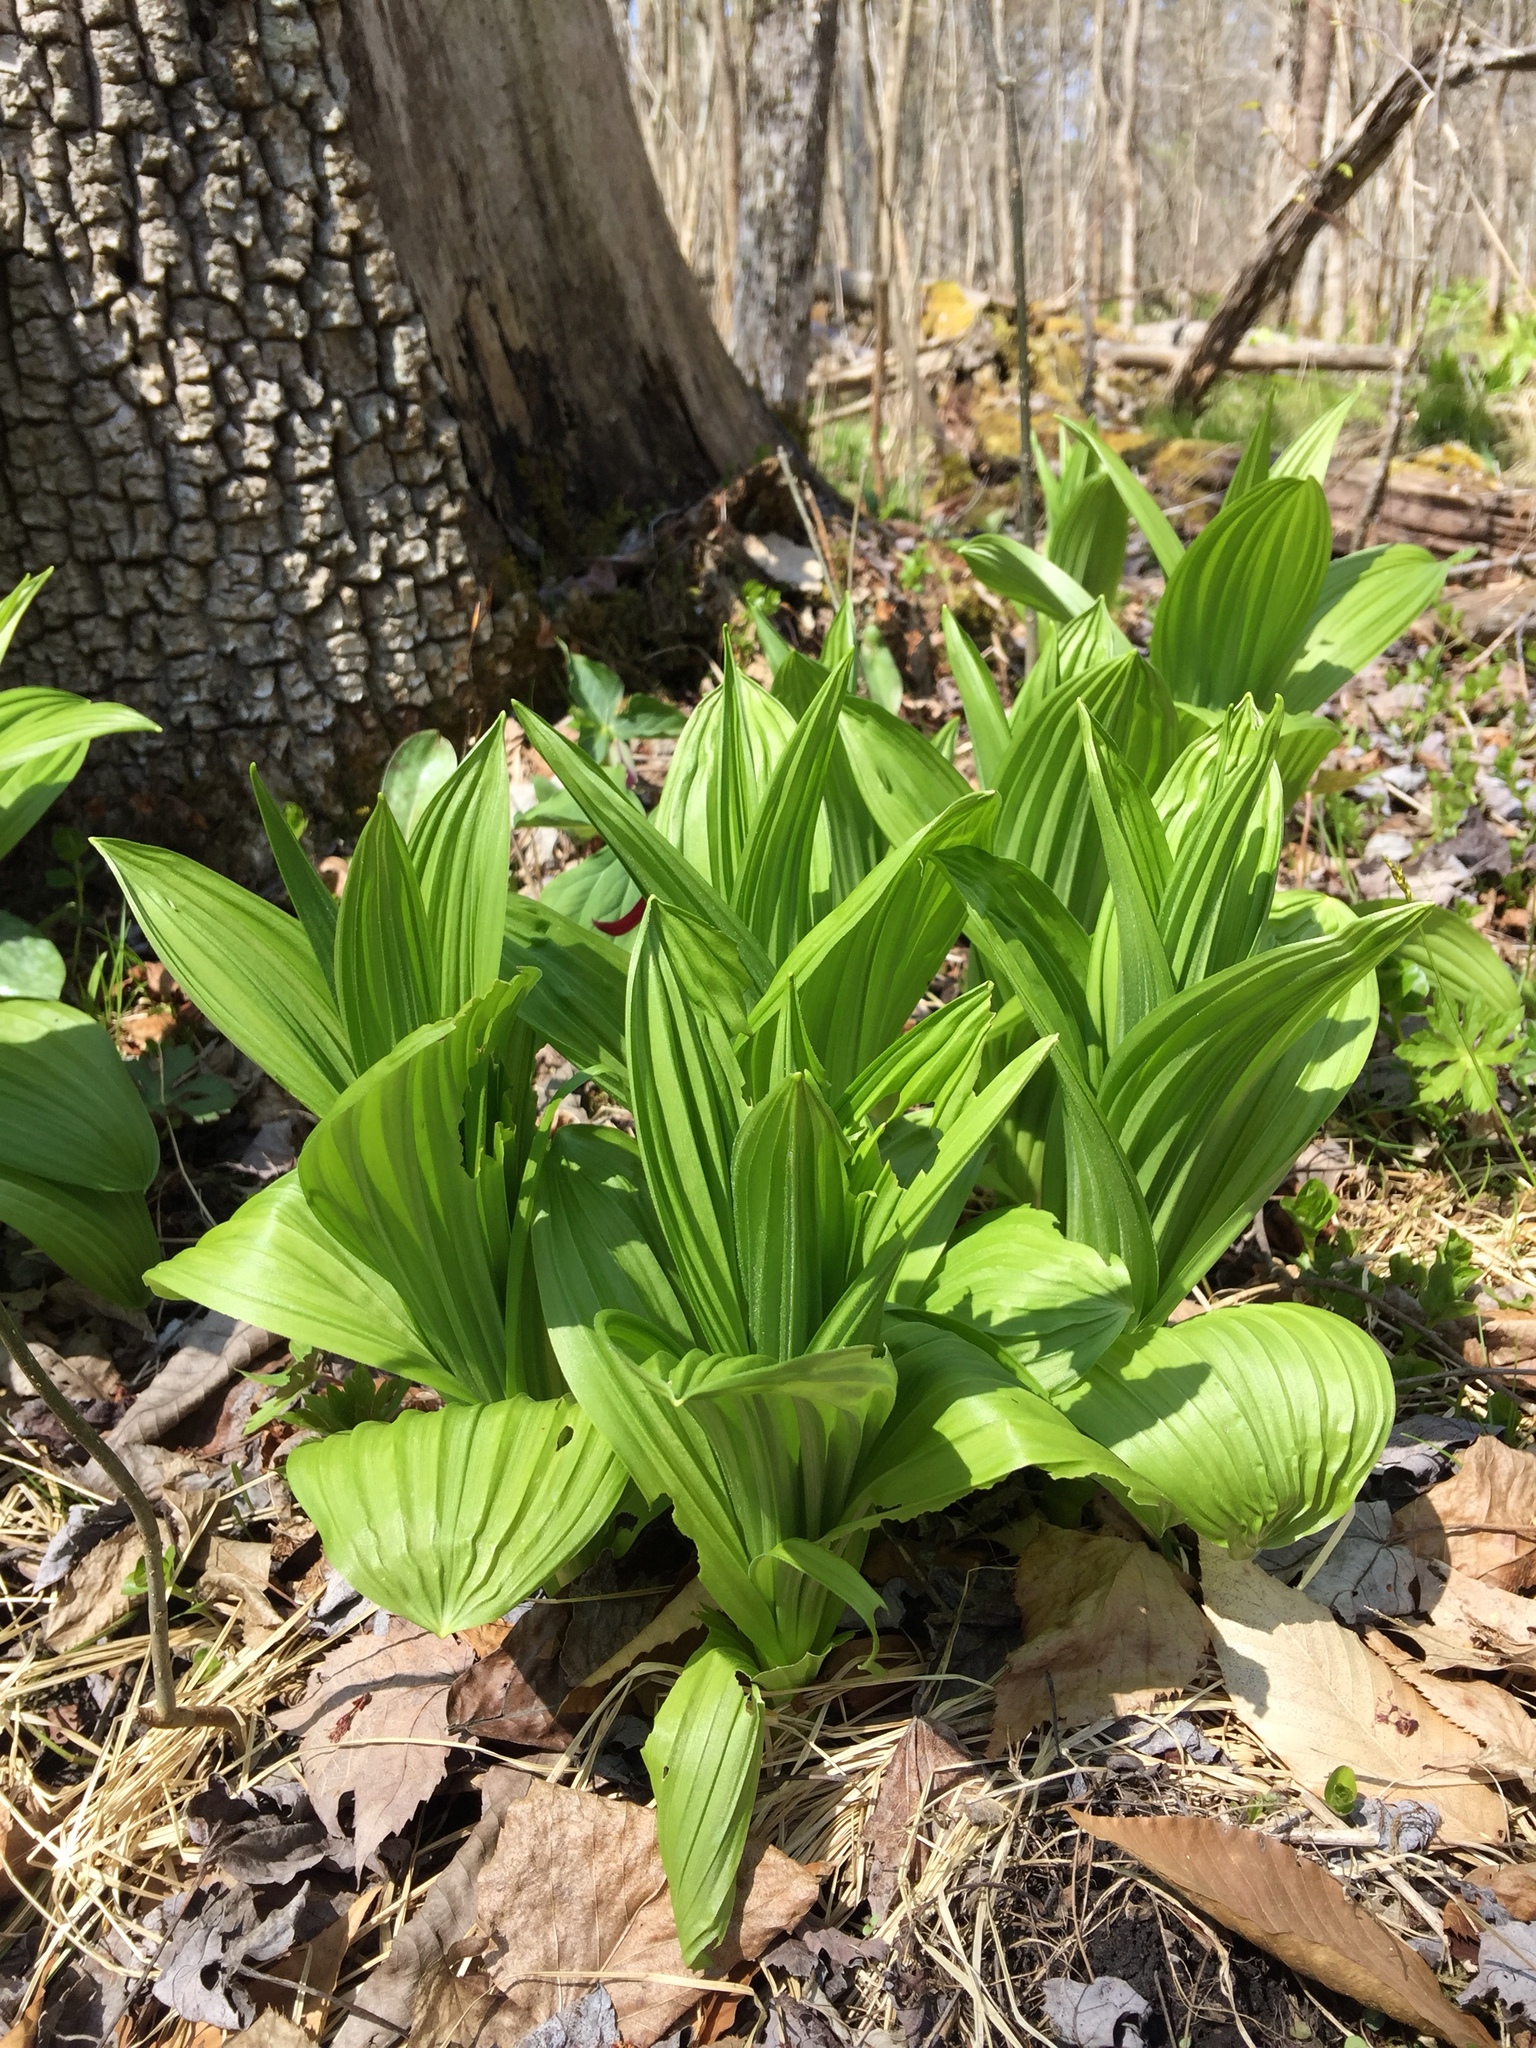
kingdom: Plantae
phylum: Tracheophyta
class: Liliopsida
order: Liliales
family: Melanthiaceae
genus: Veratrum
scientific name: Veratrum viride
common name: American false hellebore
